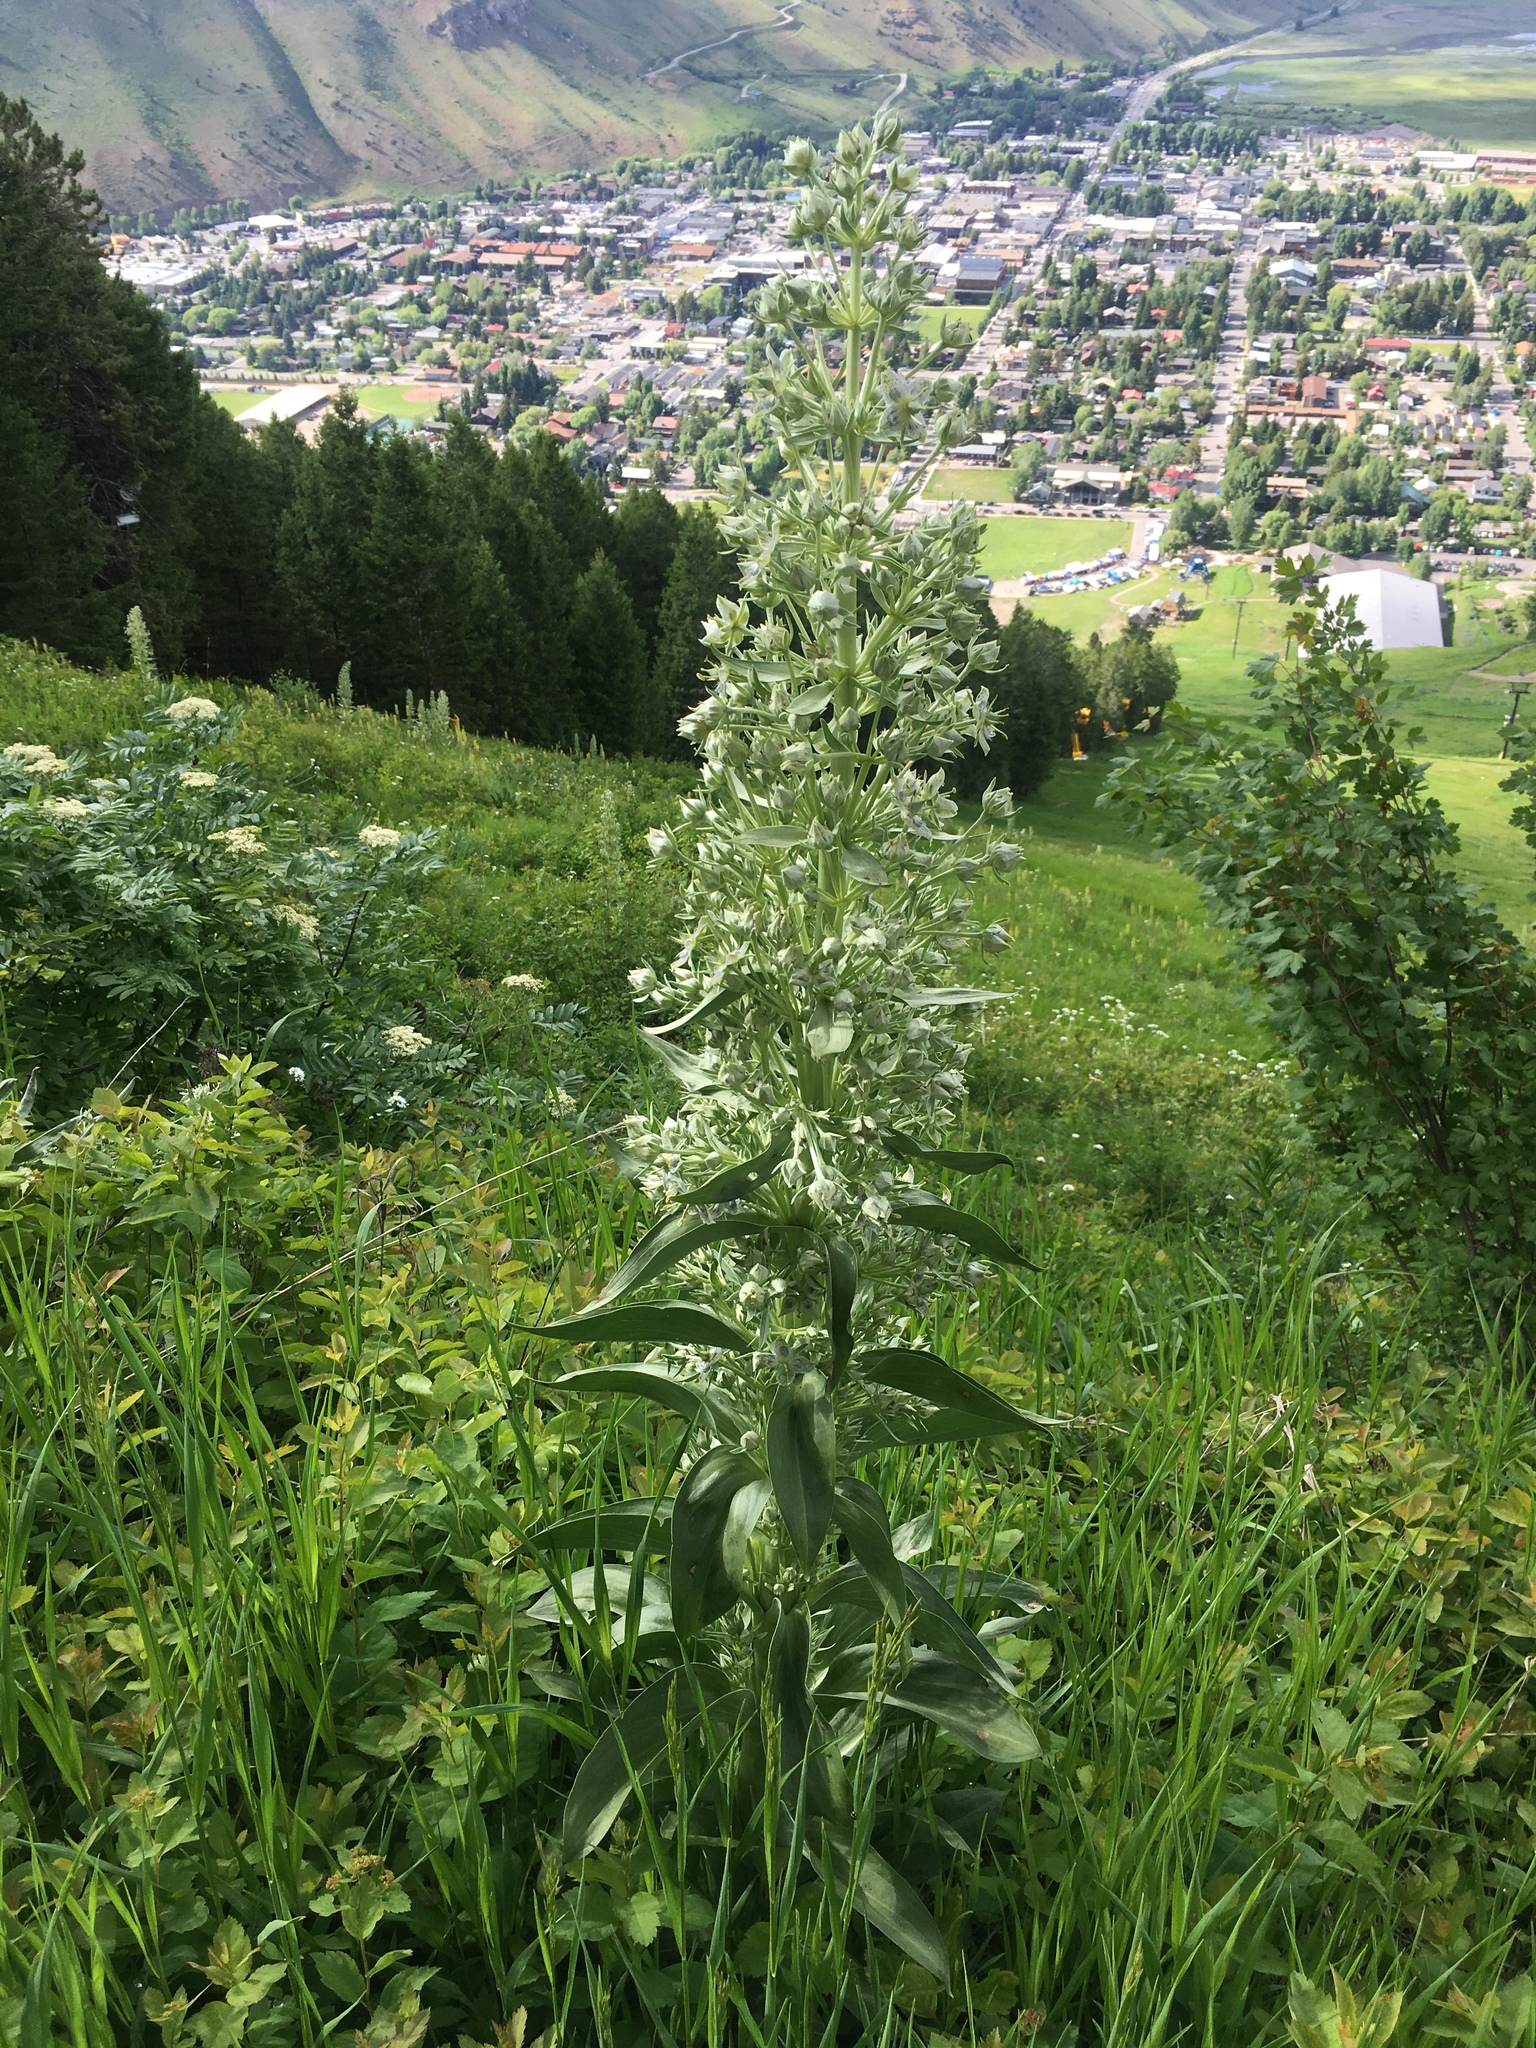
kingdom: Plantae
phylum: Tracheophyta
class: Magnoliopsida
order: Gentianales
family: Gentianaceae
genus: Frasera
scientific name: Frasera speciosa
